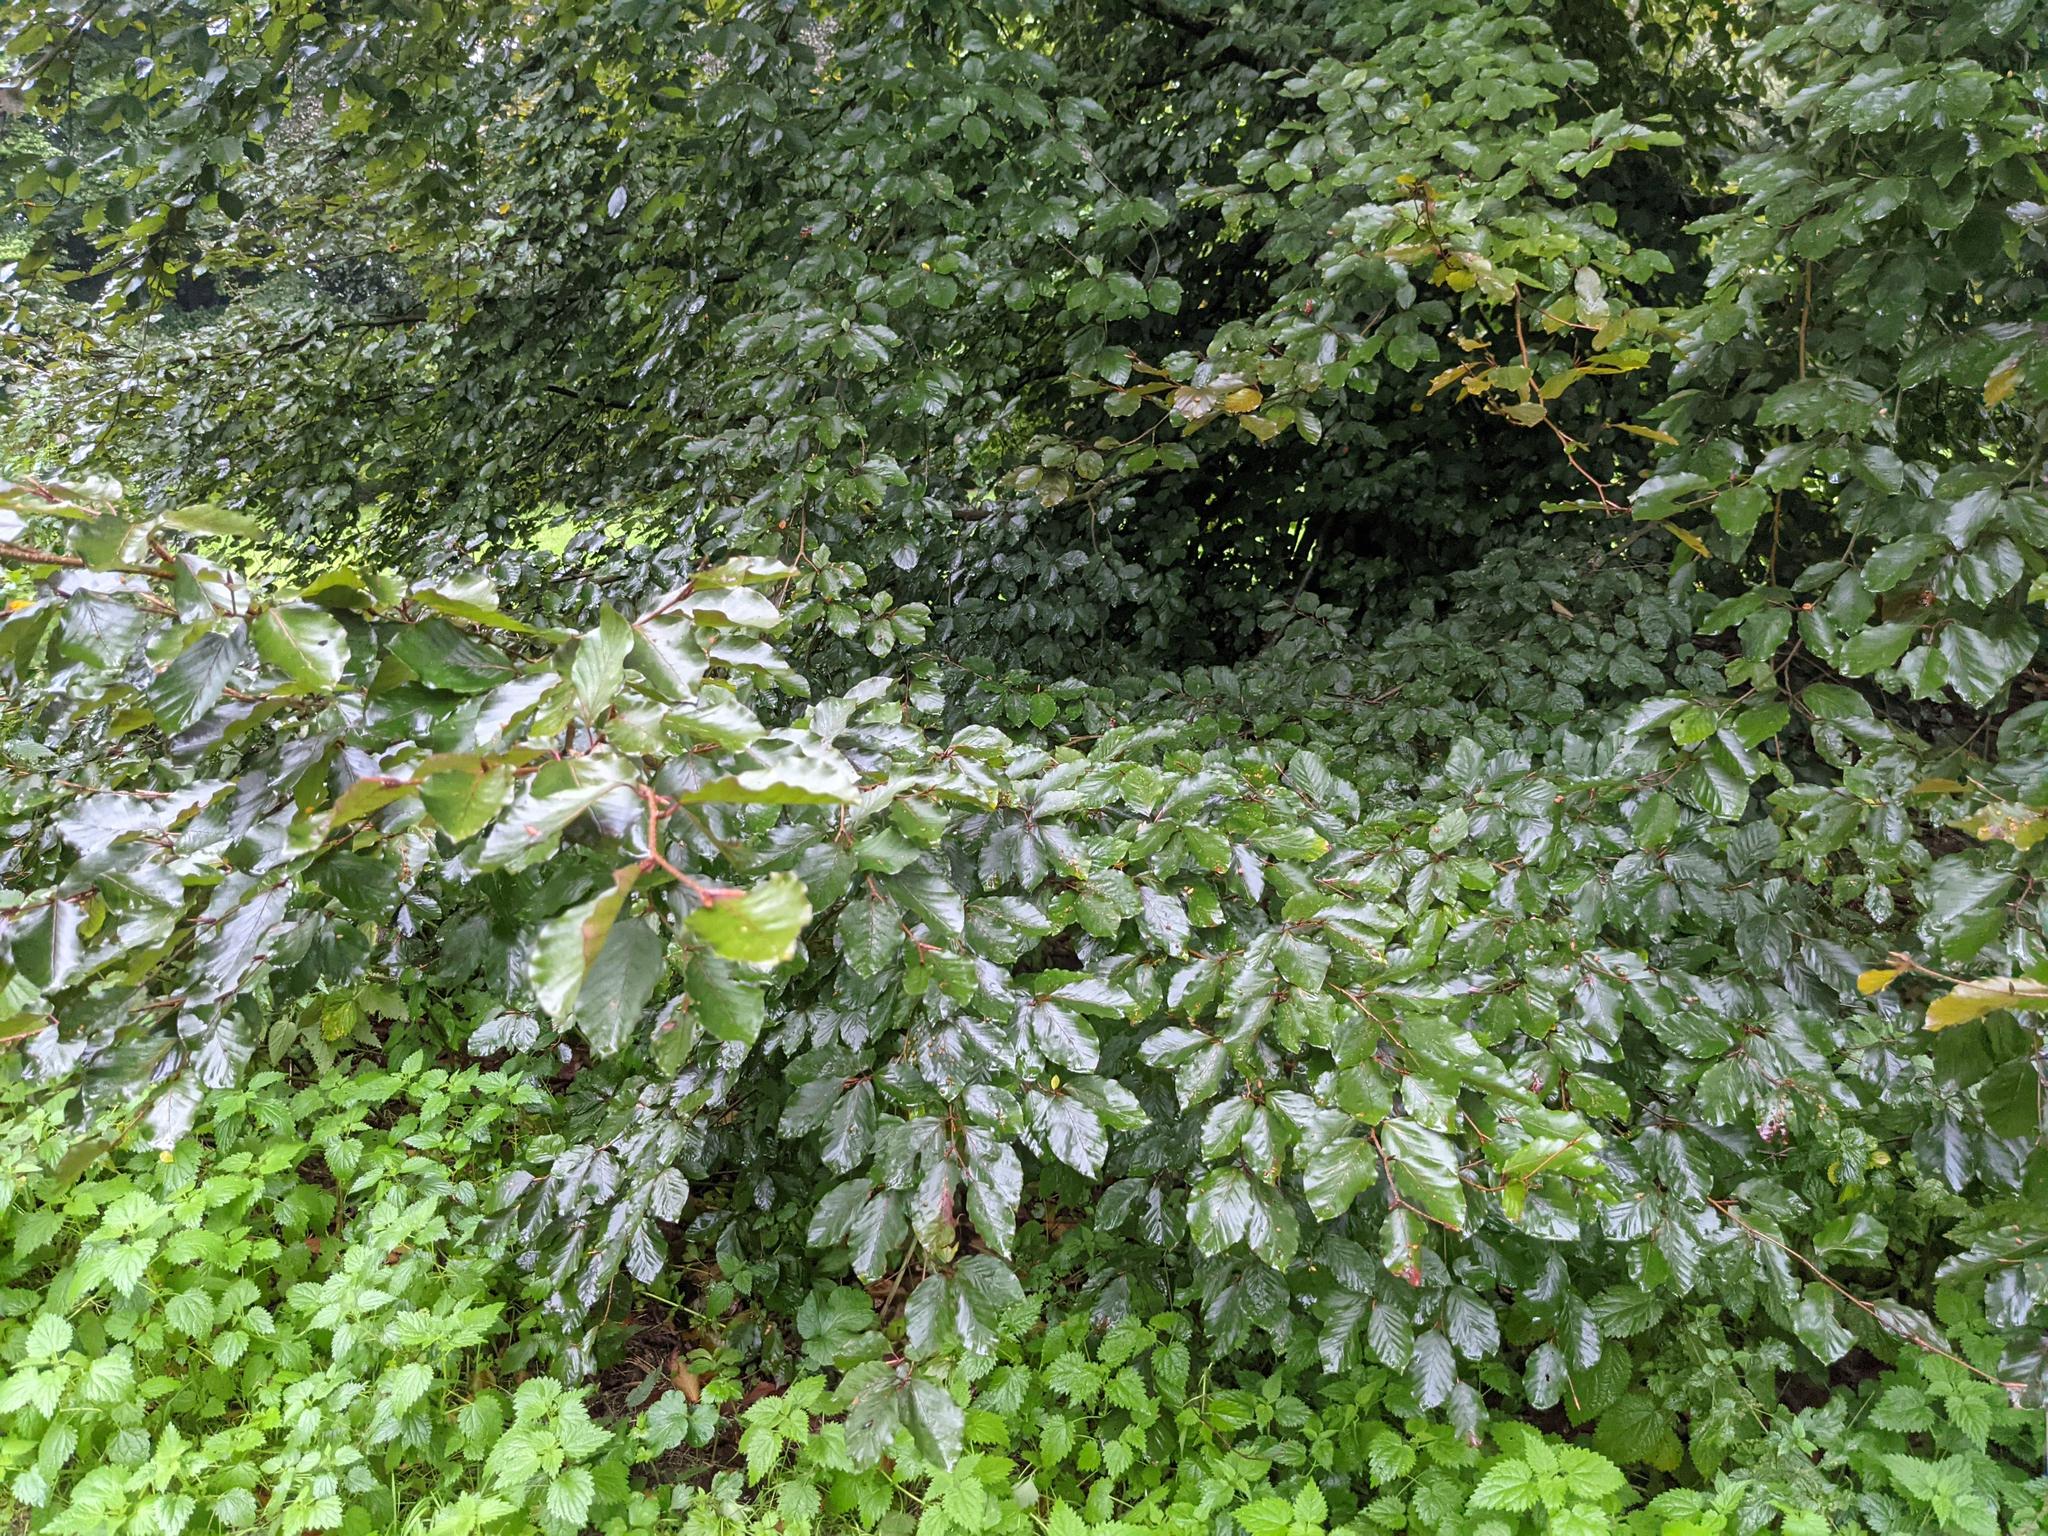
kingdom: Plantae
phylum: Tracheophyta
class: Magnoliopsida
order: Fagales
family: Fagaceae
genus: Fagus
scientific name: Fagus sylvatica
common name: Beech
